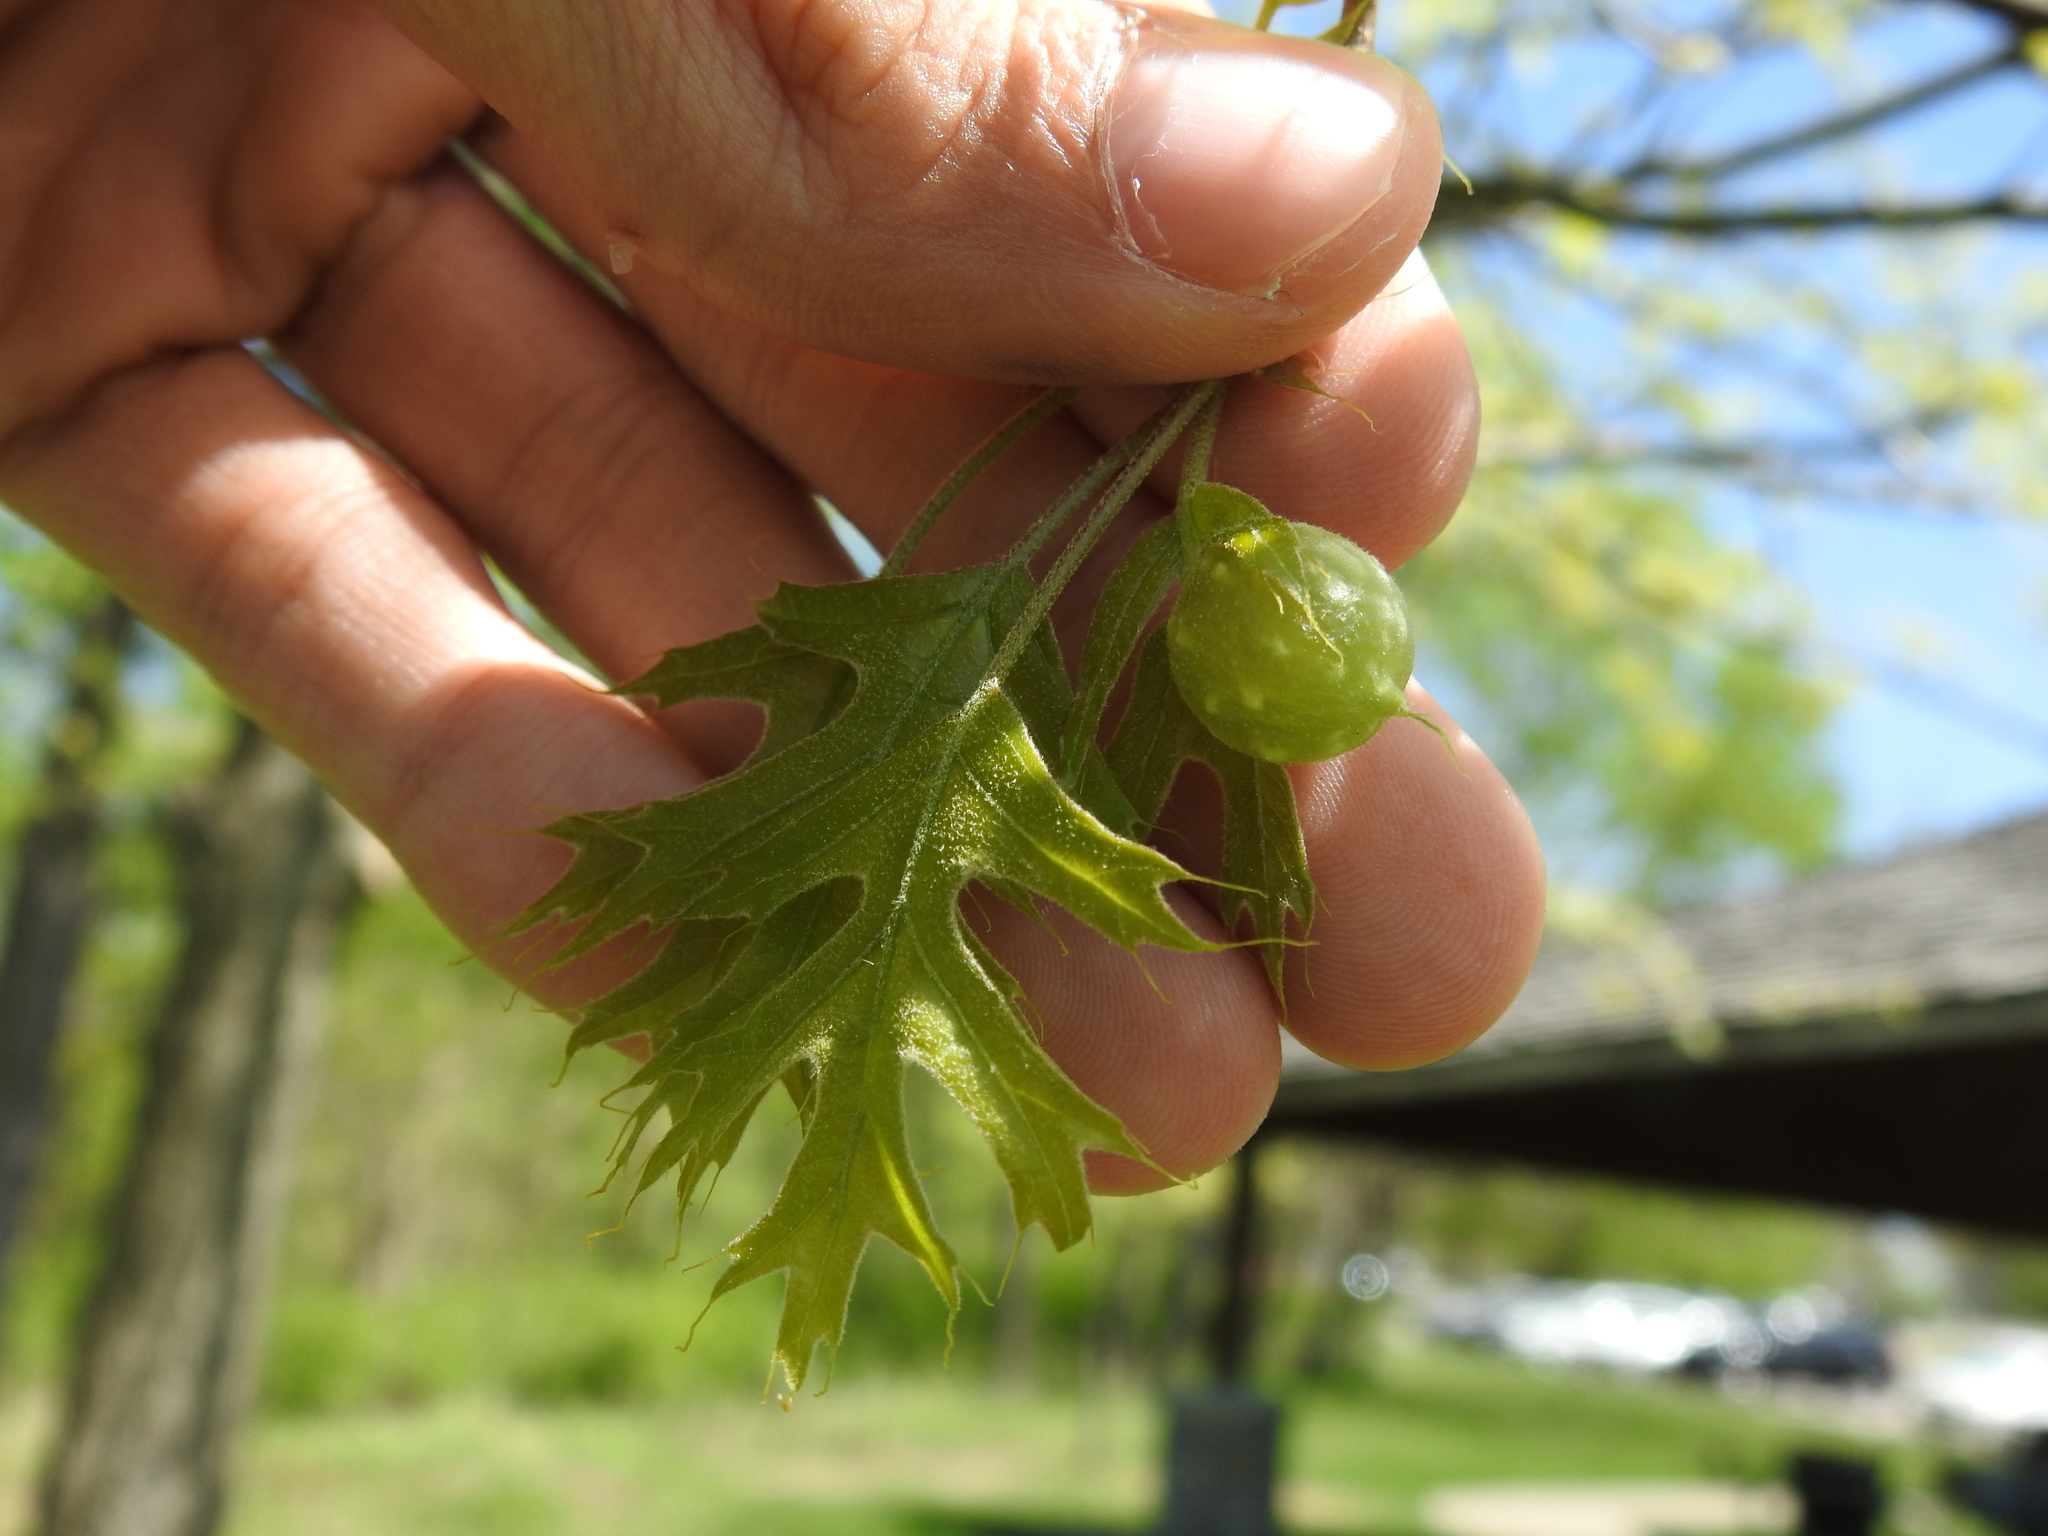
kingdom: Animalia
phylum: Arthropoda
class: Insecta
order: Hymenoptera
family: Cynipidae
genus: Dryocosmus
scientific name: Dryocosmus quercuspalustris
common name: Succulent oak gall wasp
